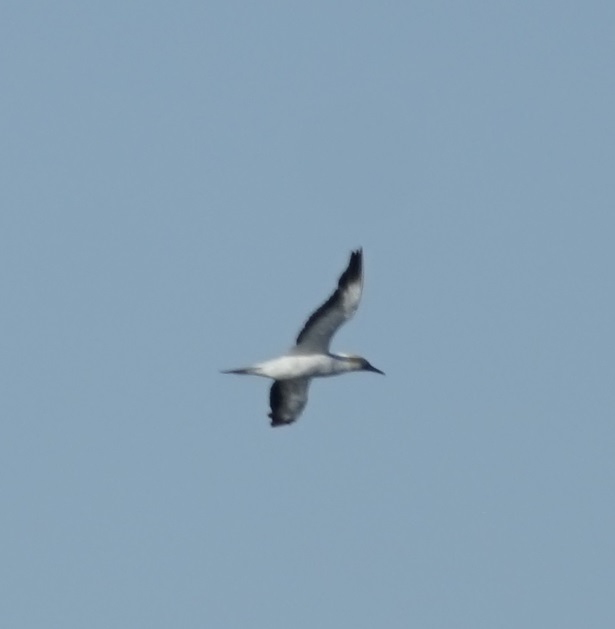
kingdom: Animalia
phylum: Chordata
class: Aves
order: Suliformes
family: Sulidae
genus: Morus
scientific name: Morus serrator
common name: Australasian gannet
